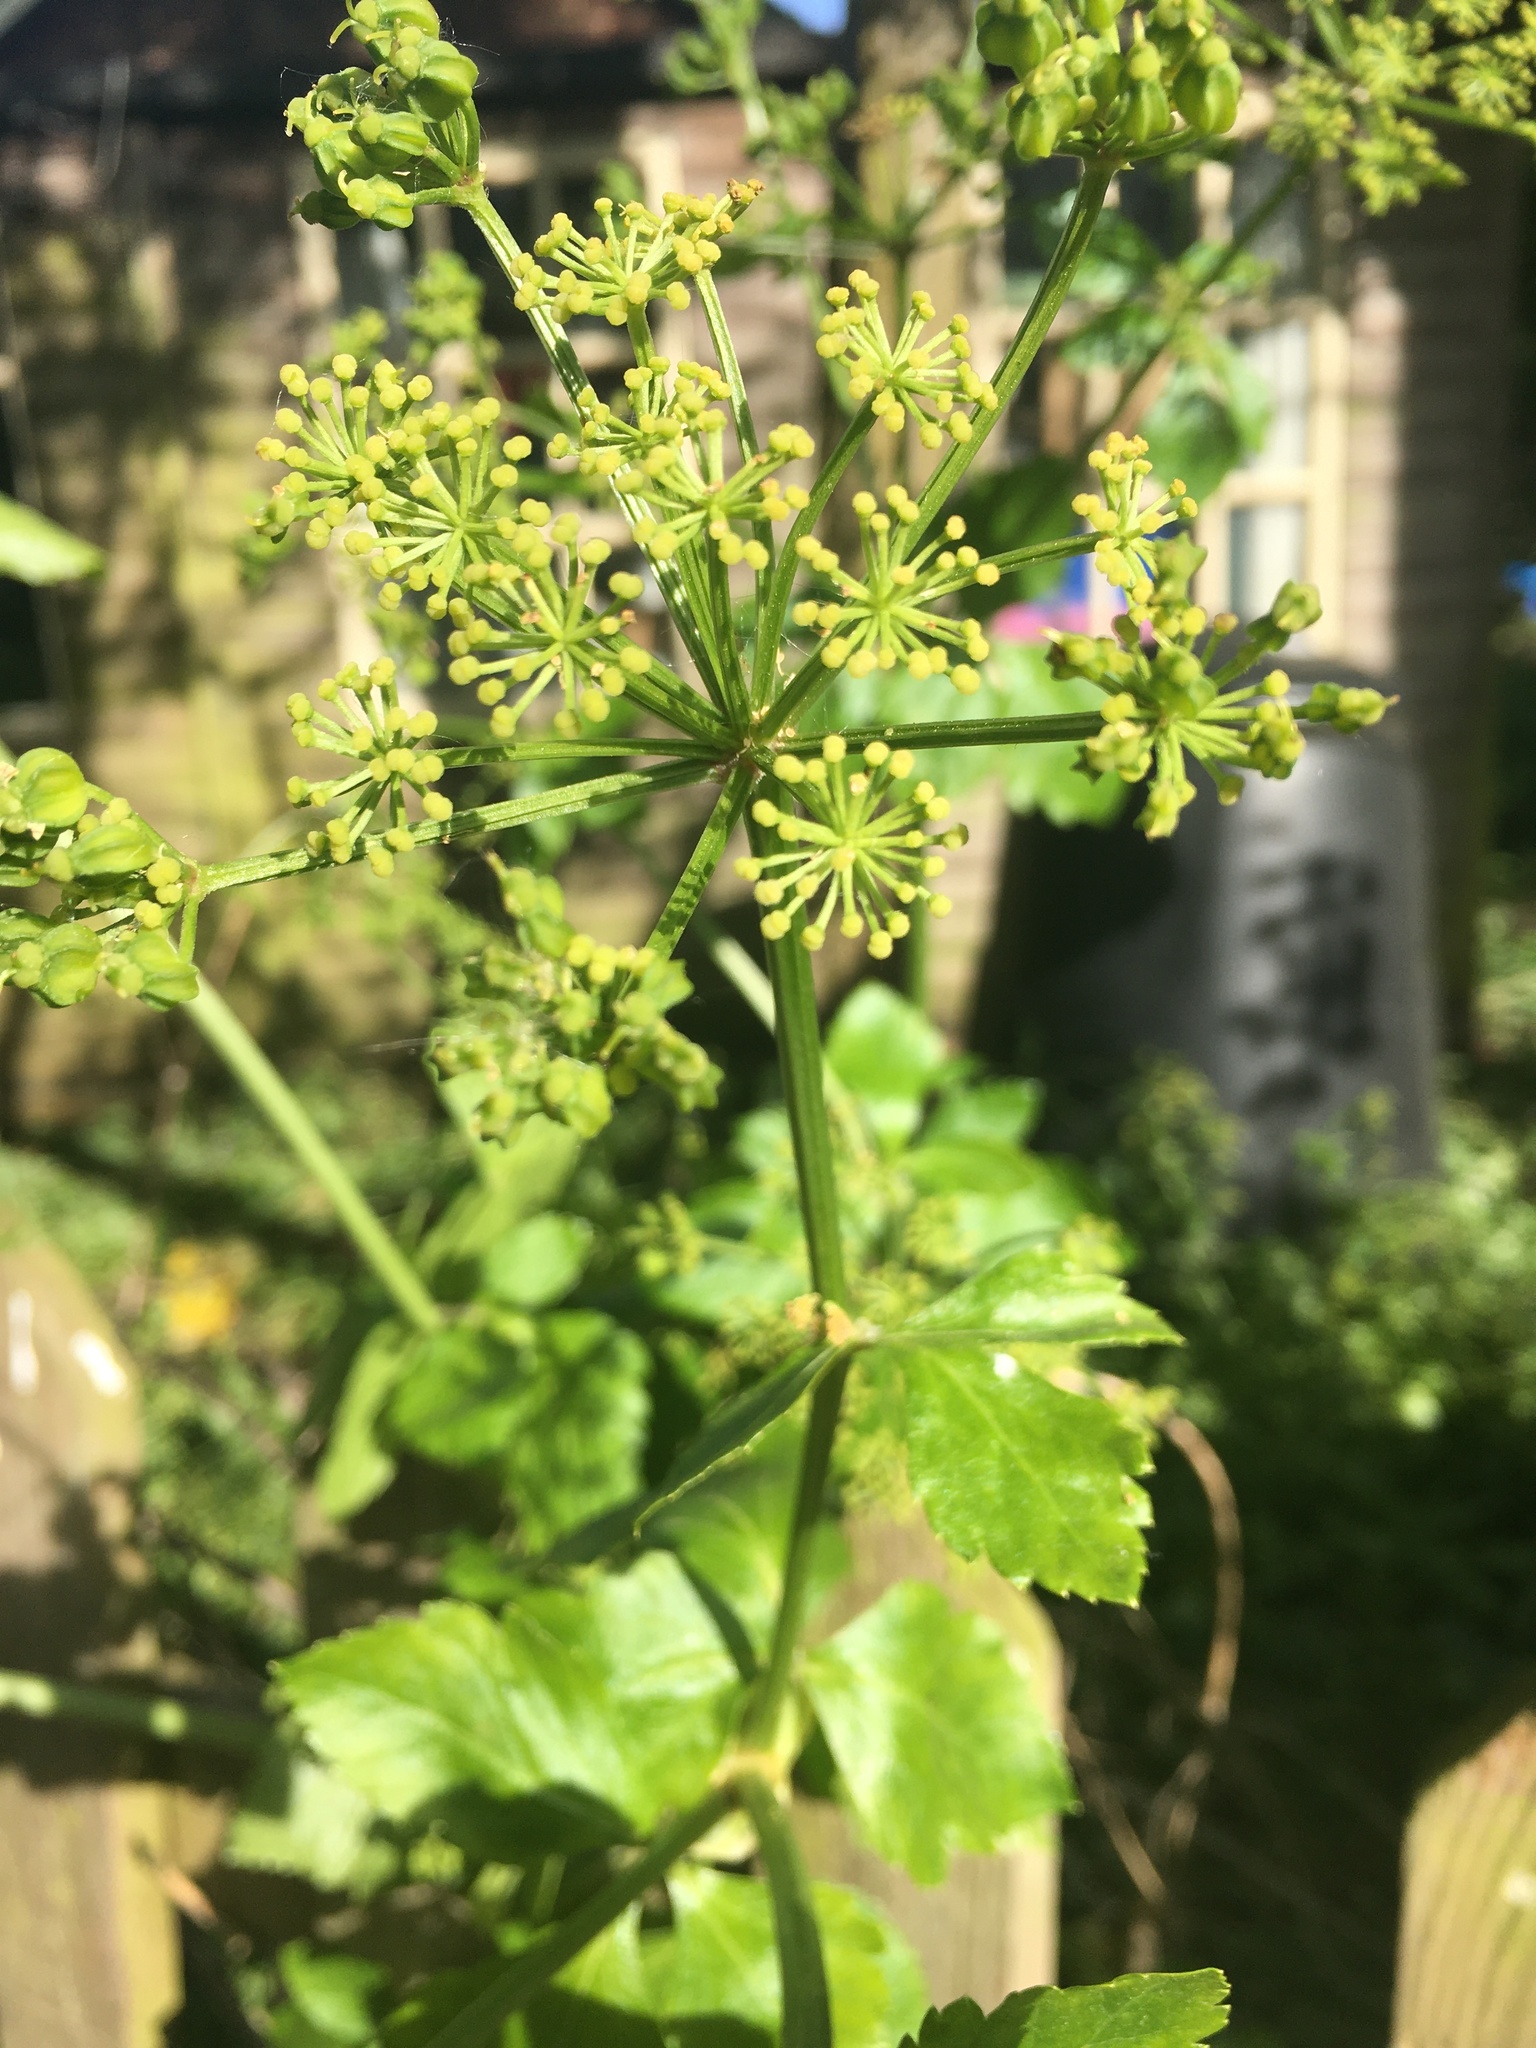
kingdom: Plantae
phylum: Tracheophyta
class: Magnoliopsida
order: Apiales
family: Apiaceae
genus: Smyrnium
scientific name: Smyrnium olusatrum
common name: Alexanders
